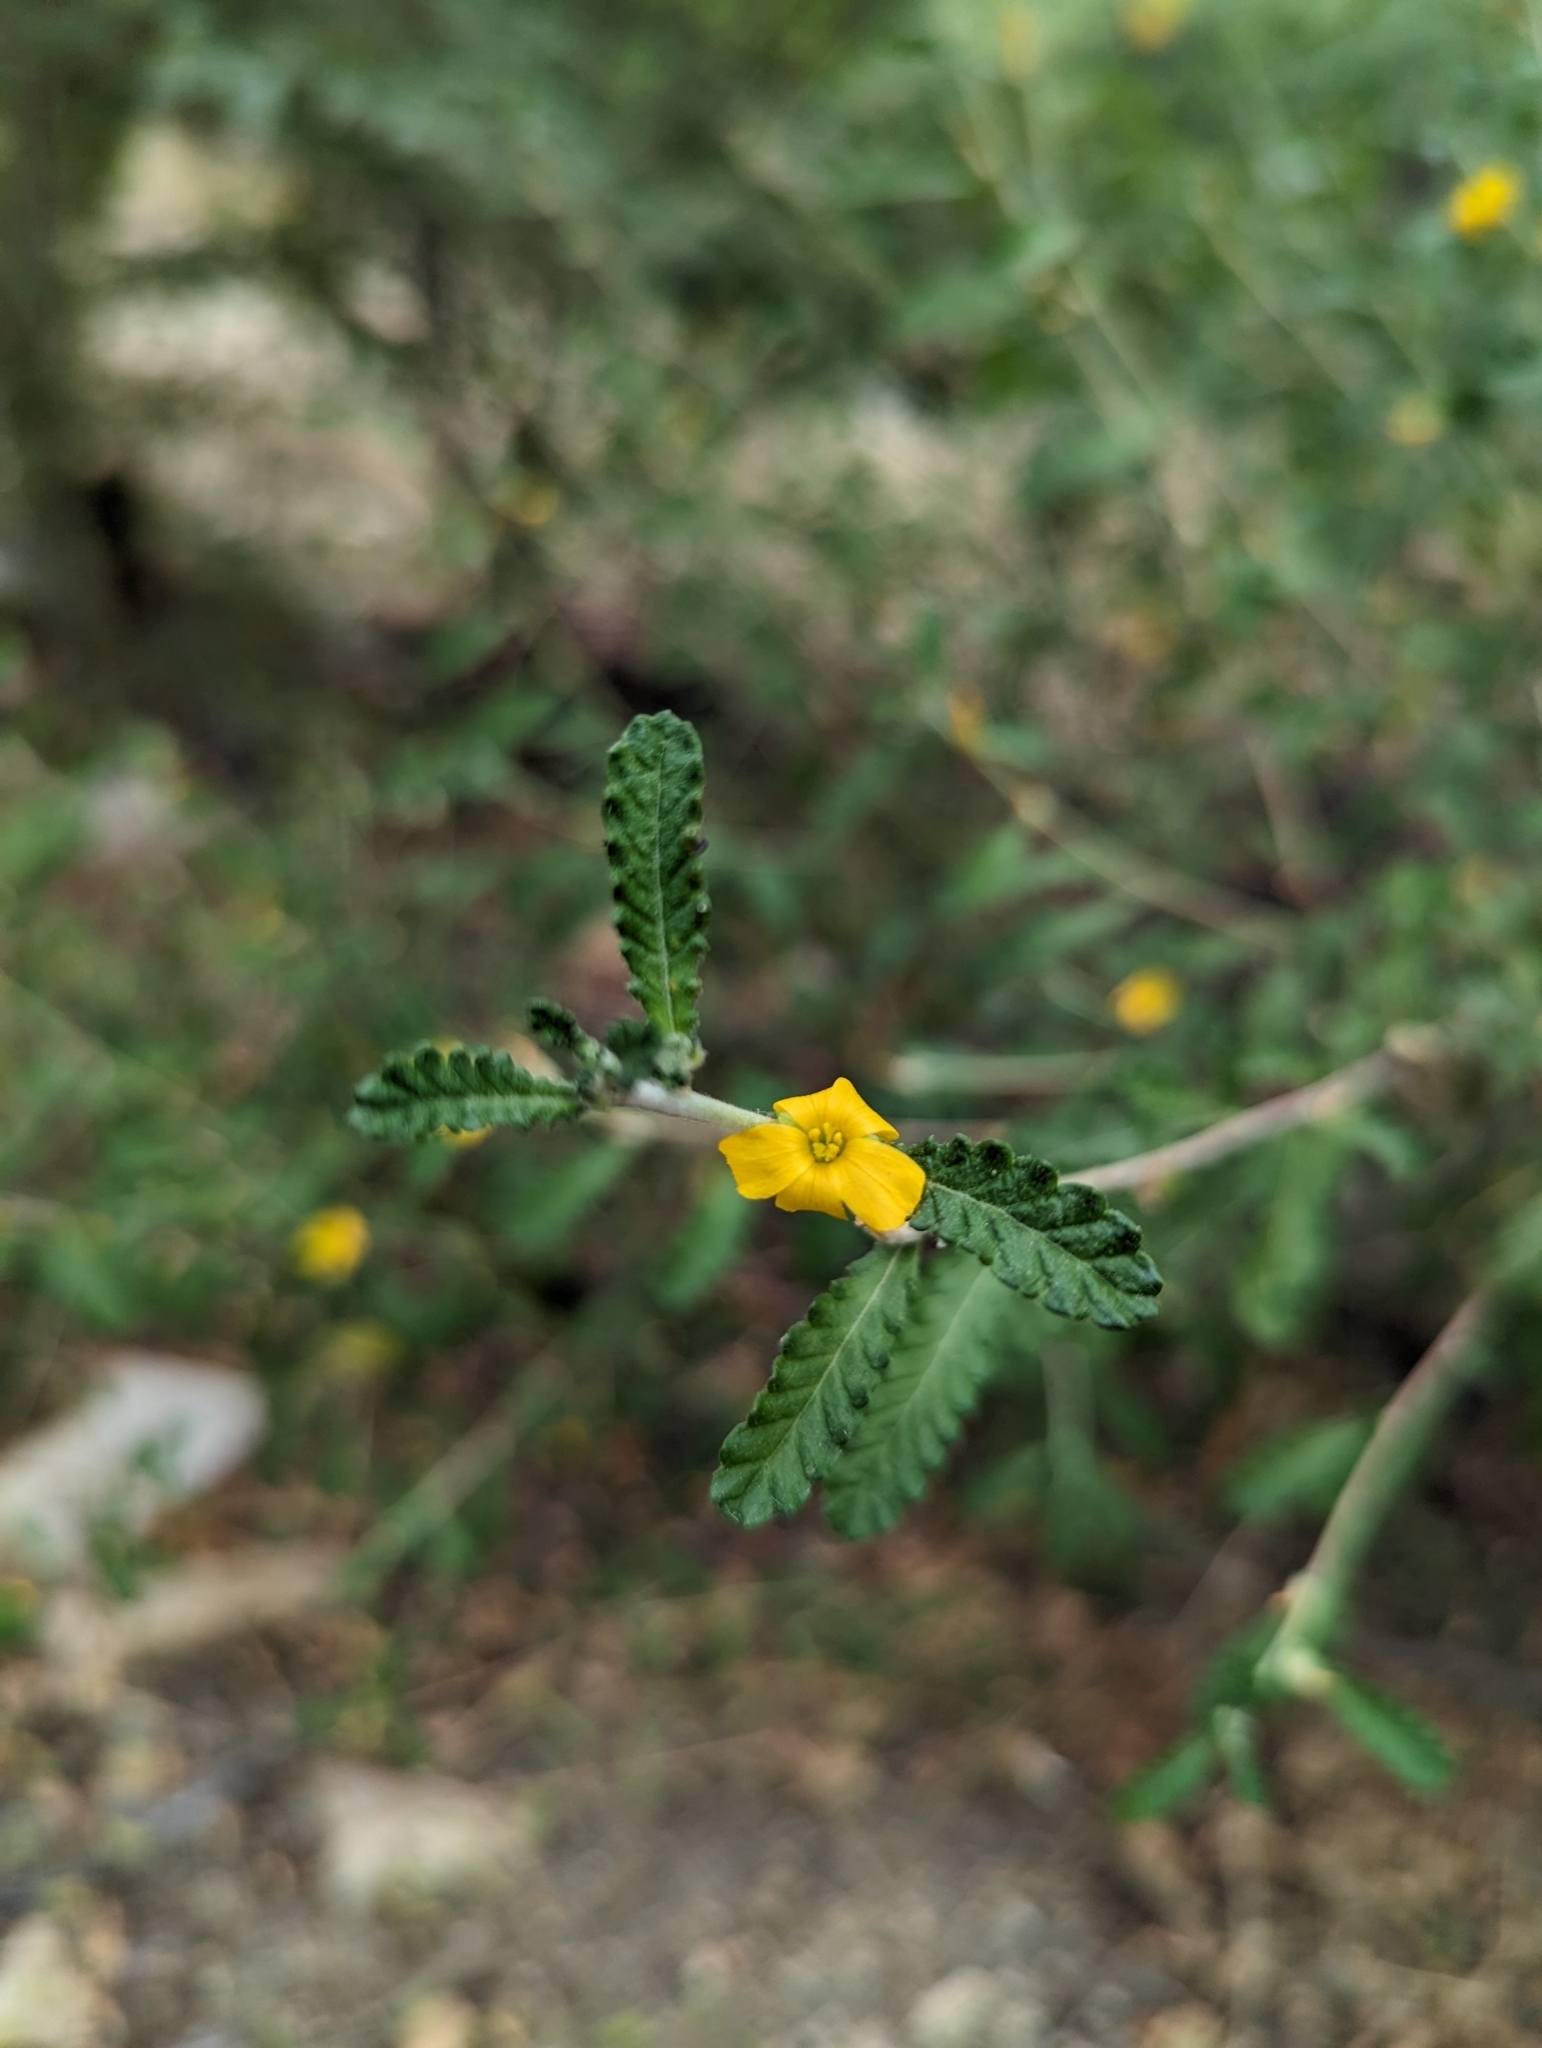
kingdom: Plantae
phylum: Tracheophyta
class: Magnoliopsida
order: Malpighiales
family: Turneraceae
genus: Turnera
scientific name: Turnera diffusa
